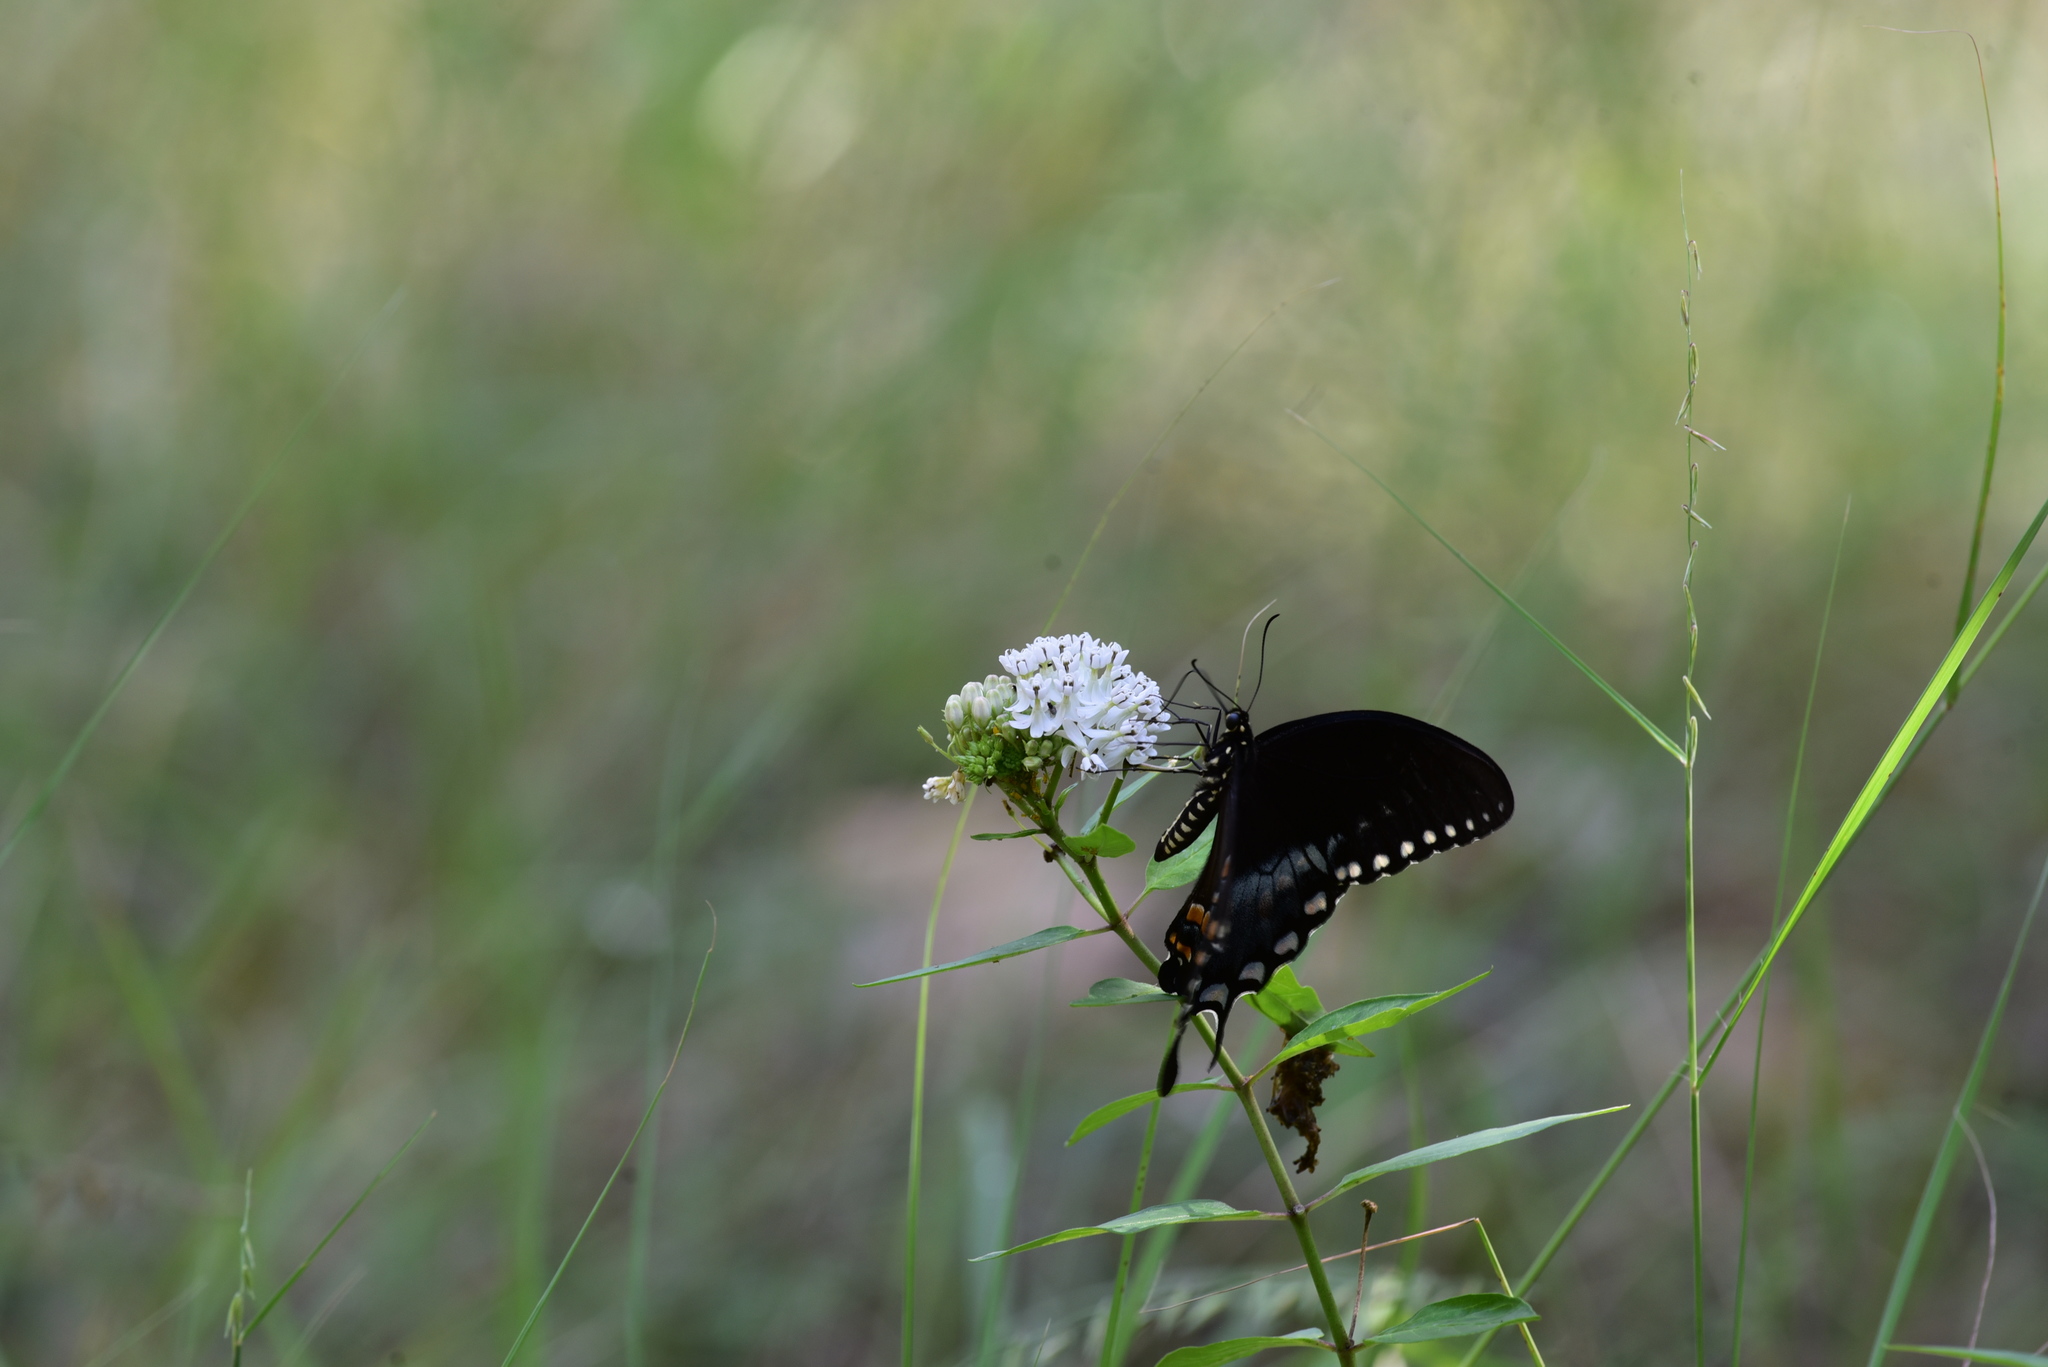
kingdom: Animalia
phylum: Arthropoda
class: Insecta
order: Lepidoptera
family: Papilionidae
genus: Papilio
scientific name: Papilio troilus
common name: Spicebush swallowtail
